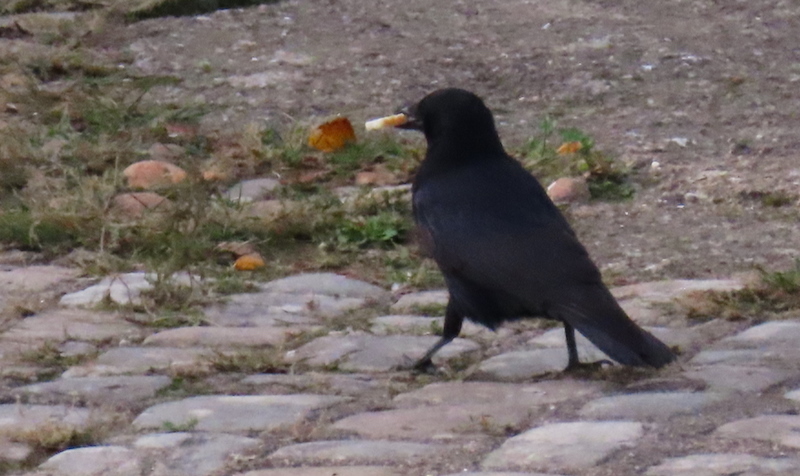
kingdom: Animalia
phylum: Chordata
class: Aves
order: Passeriformes
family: Corvidae
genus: Corvus
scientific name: Corvus corone
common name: Carrion crow
